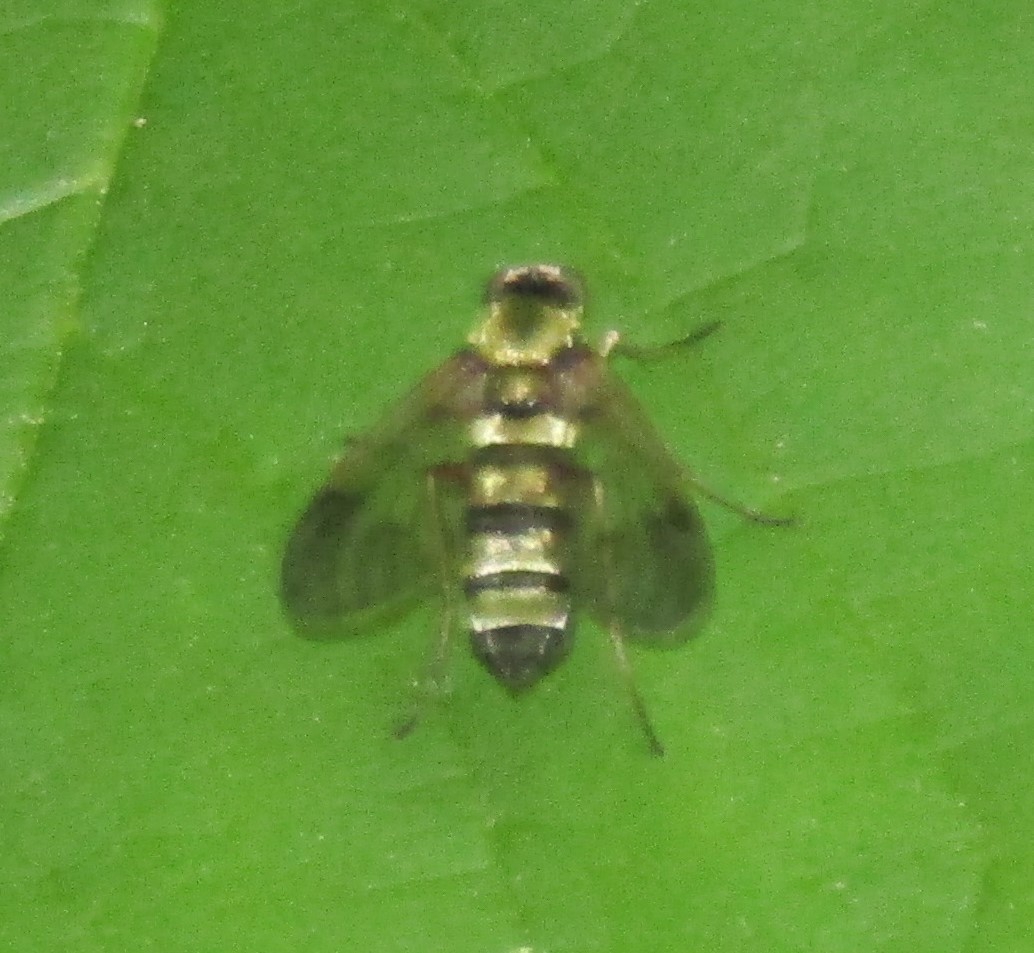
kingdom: Animalia
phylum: Arthropoda
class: Insecta
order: Diptera
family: Rhagionidae
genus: Chrysopilus
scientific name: Chrysopilus fasciatus
